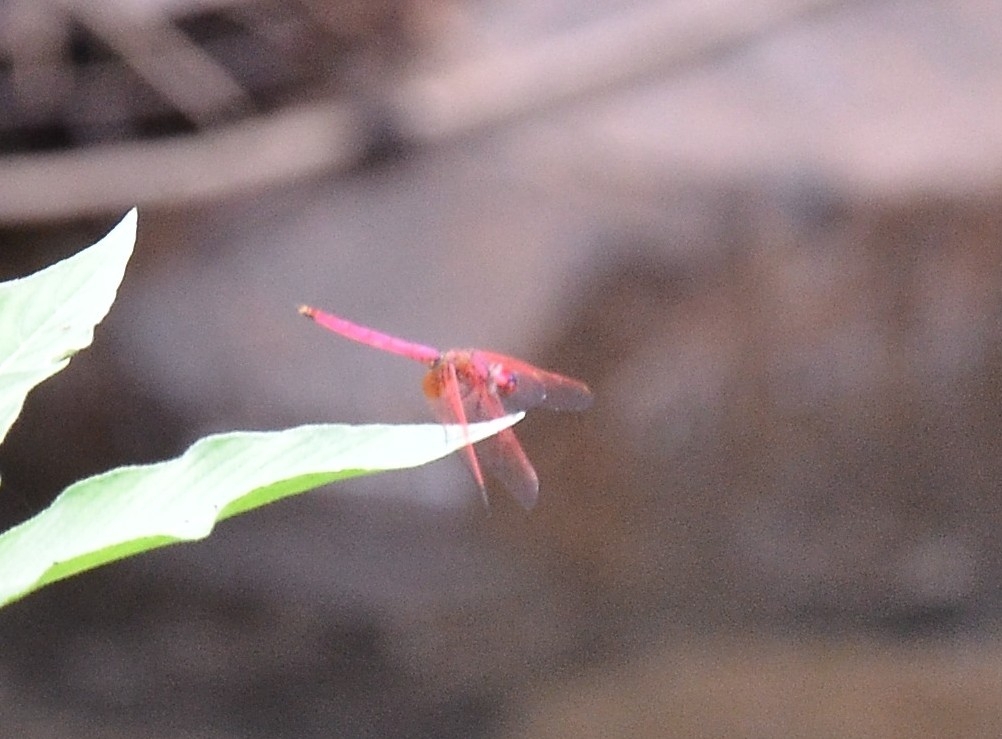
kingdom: Animalia
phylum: Arthropoda
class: Insecta
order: Odonata
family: Libellulidae
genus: Trithemis
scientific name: Trithemis aurora
